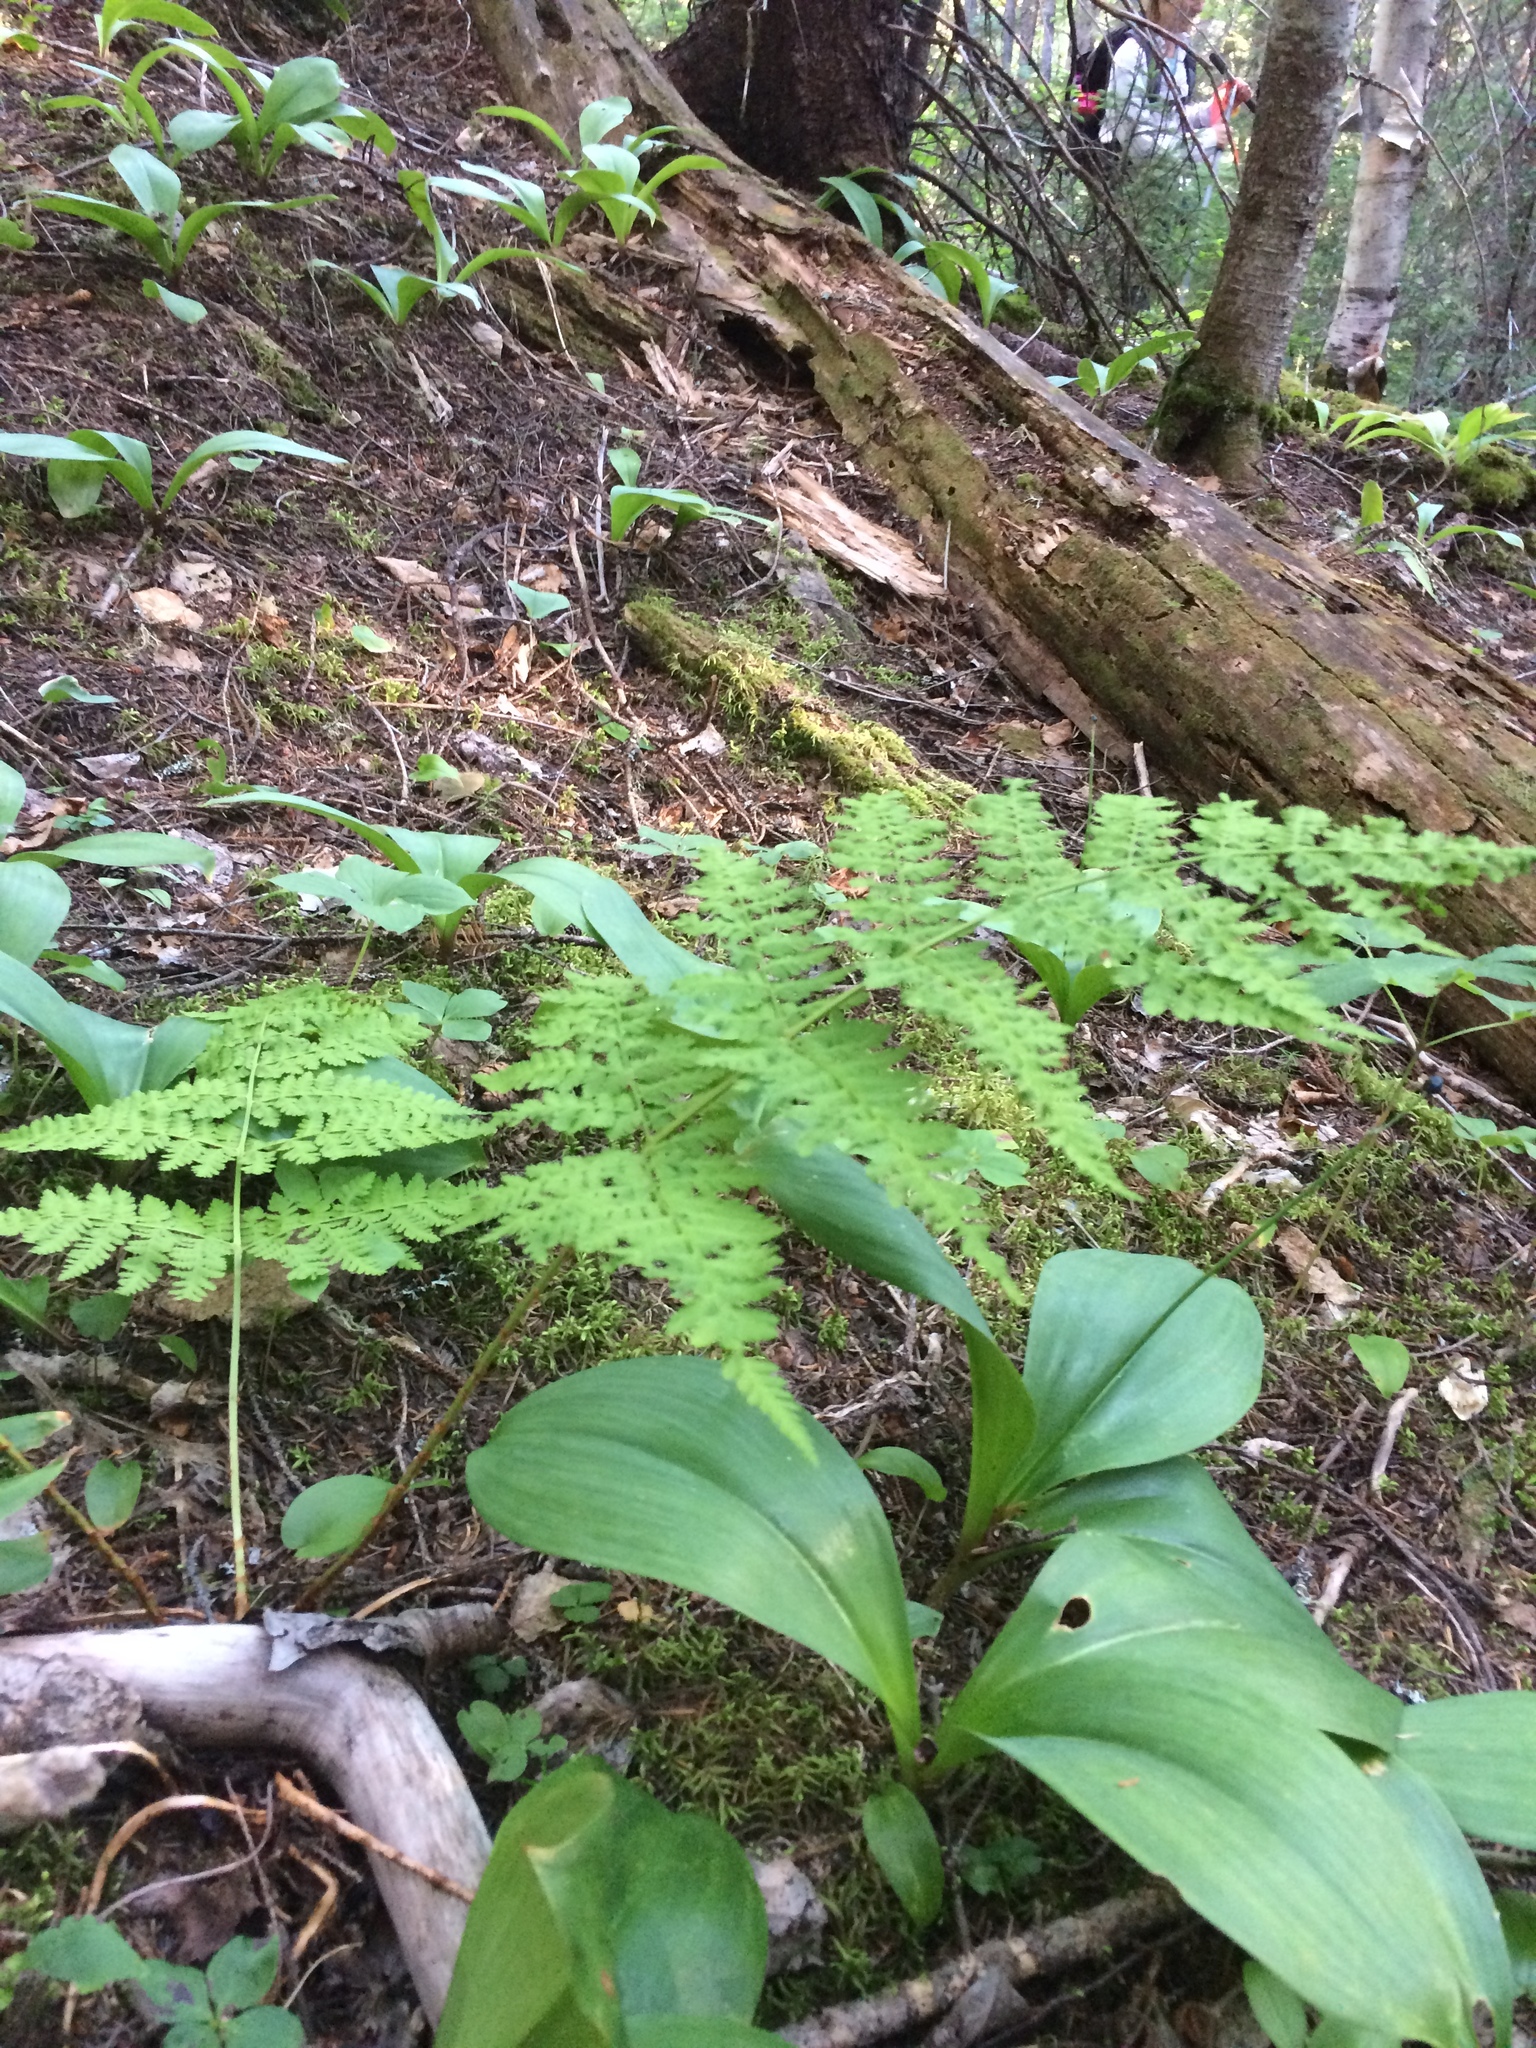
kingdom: Plantae
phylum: Tracheophyta
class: Polypodiopsida
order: Polypodiales
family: Dryopteridaceae
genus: Dryopteris
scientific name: Dryopteris campyloptera
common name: Mountain wood fern
